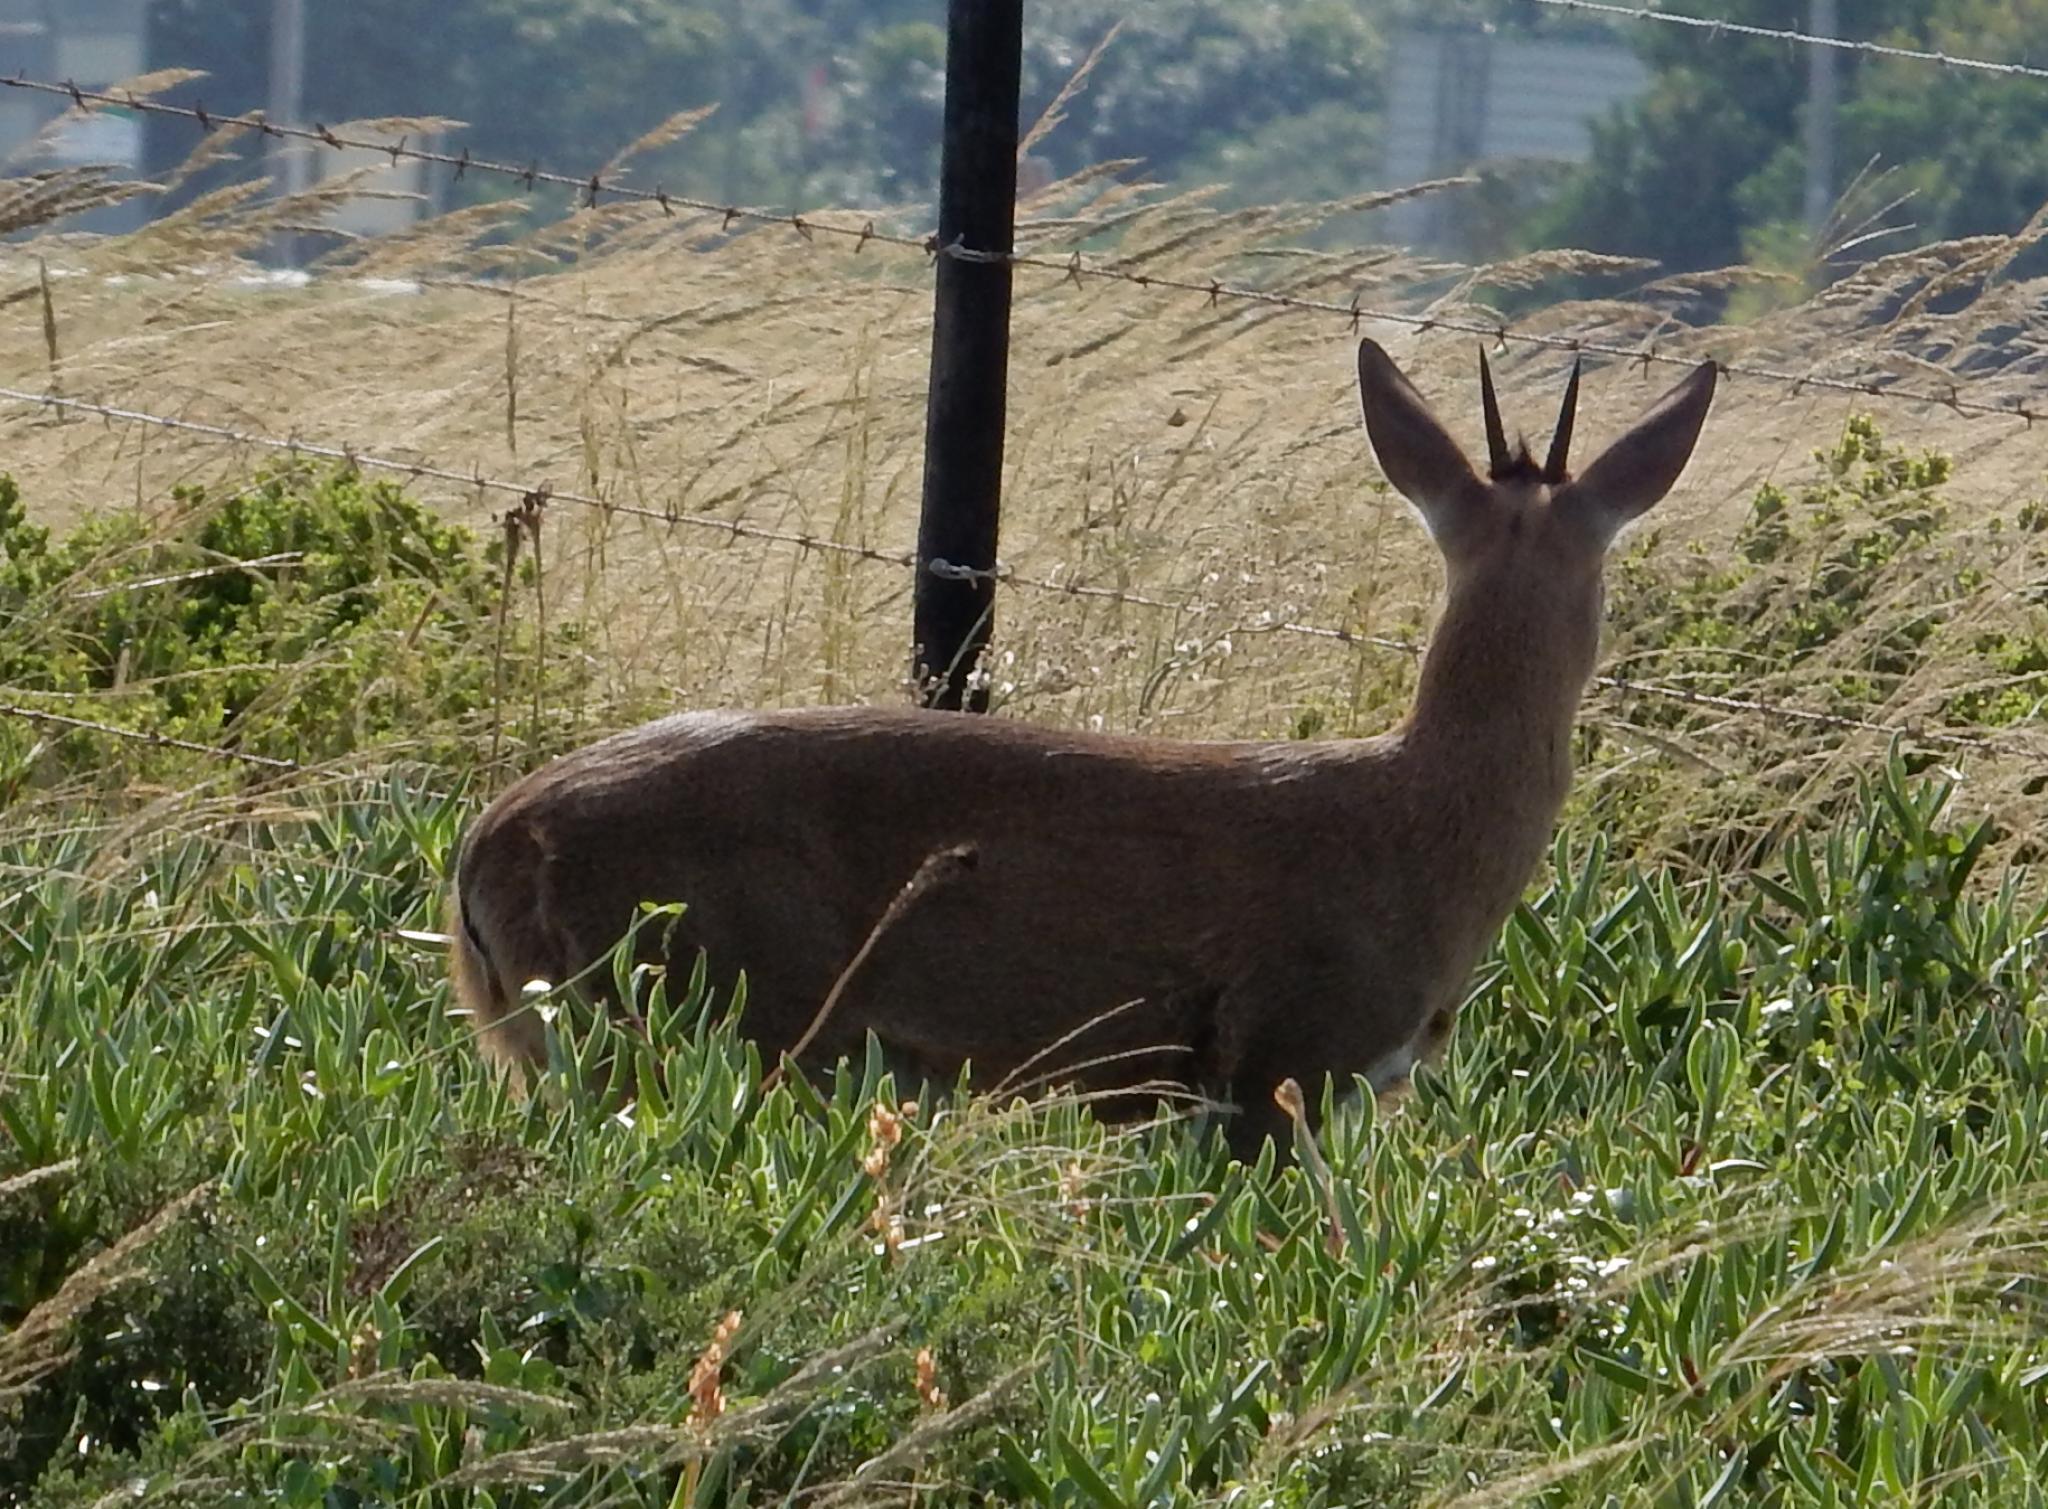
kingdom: Animalia
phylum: Chordata
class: Mammalia
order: Artiodactyla
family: Bovidae
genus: Sylvicapra
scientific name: Sylvicapra grimmia
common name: Bush duiker
